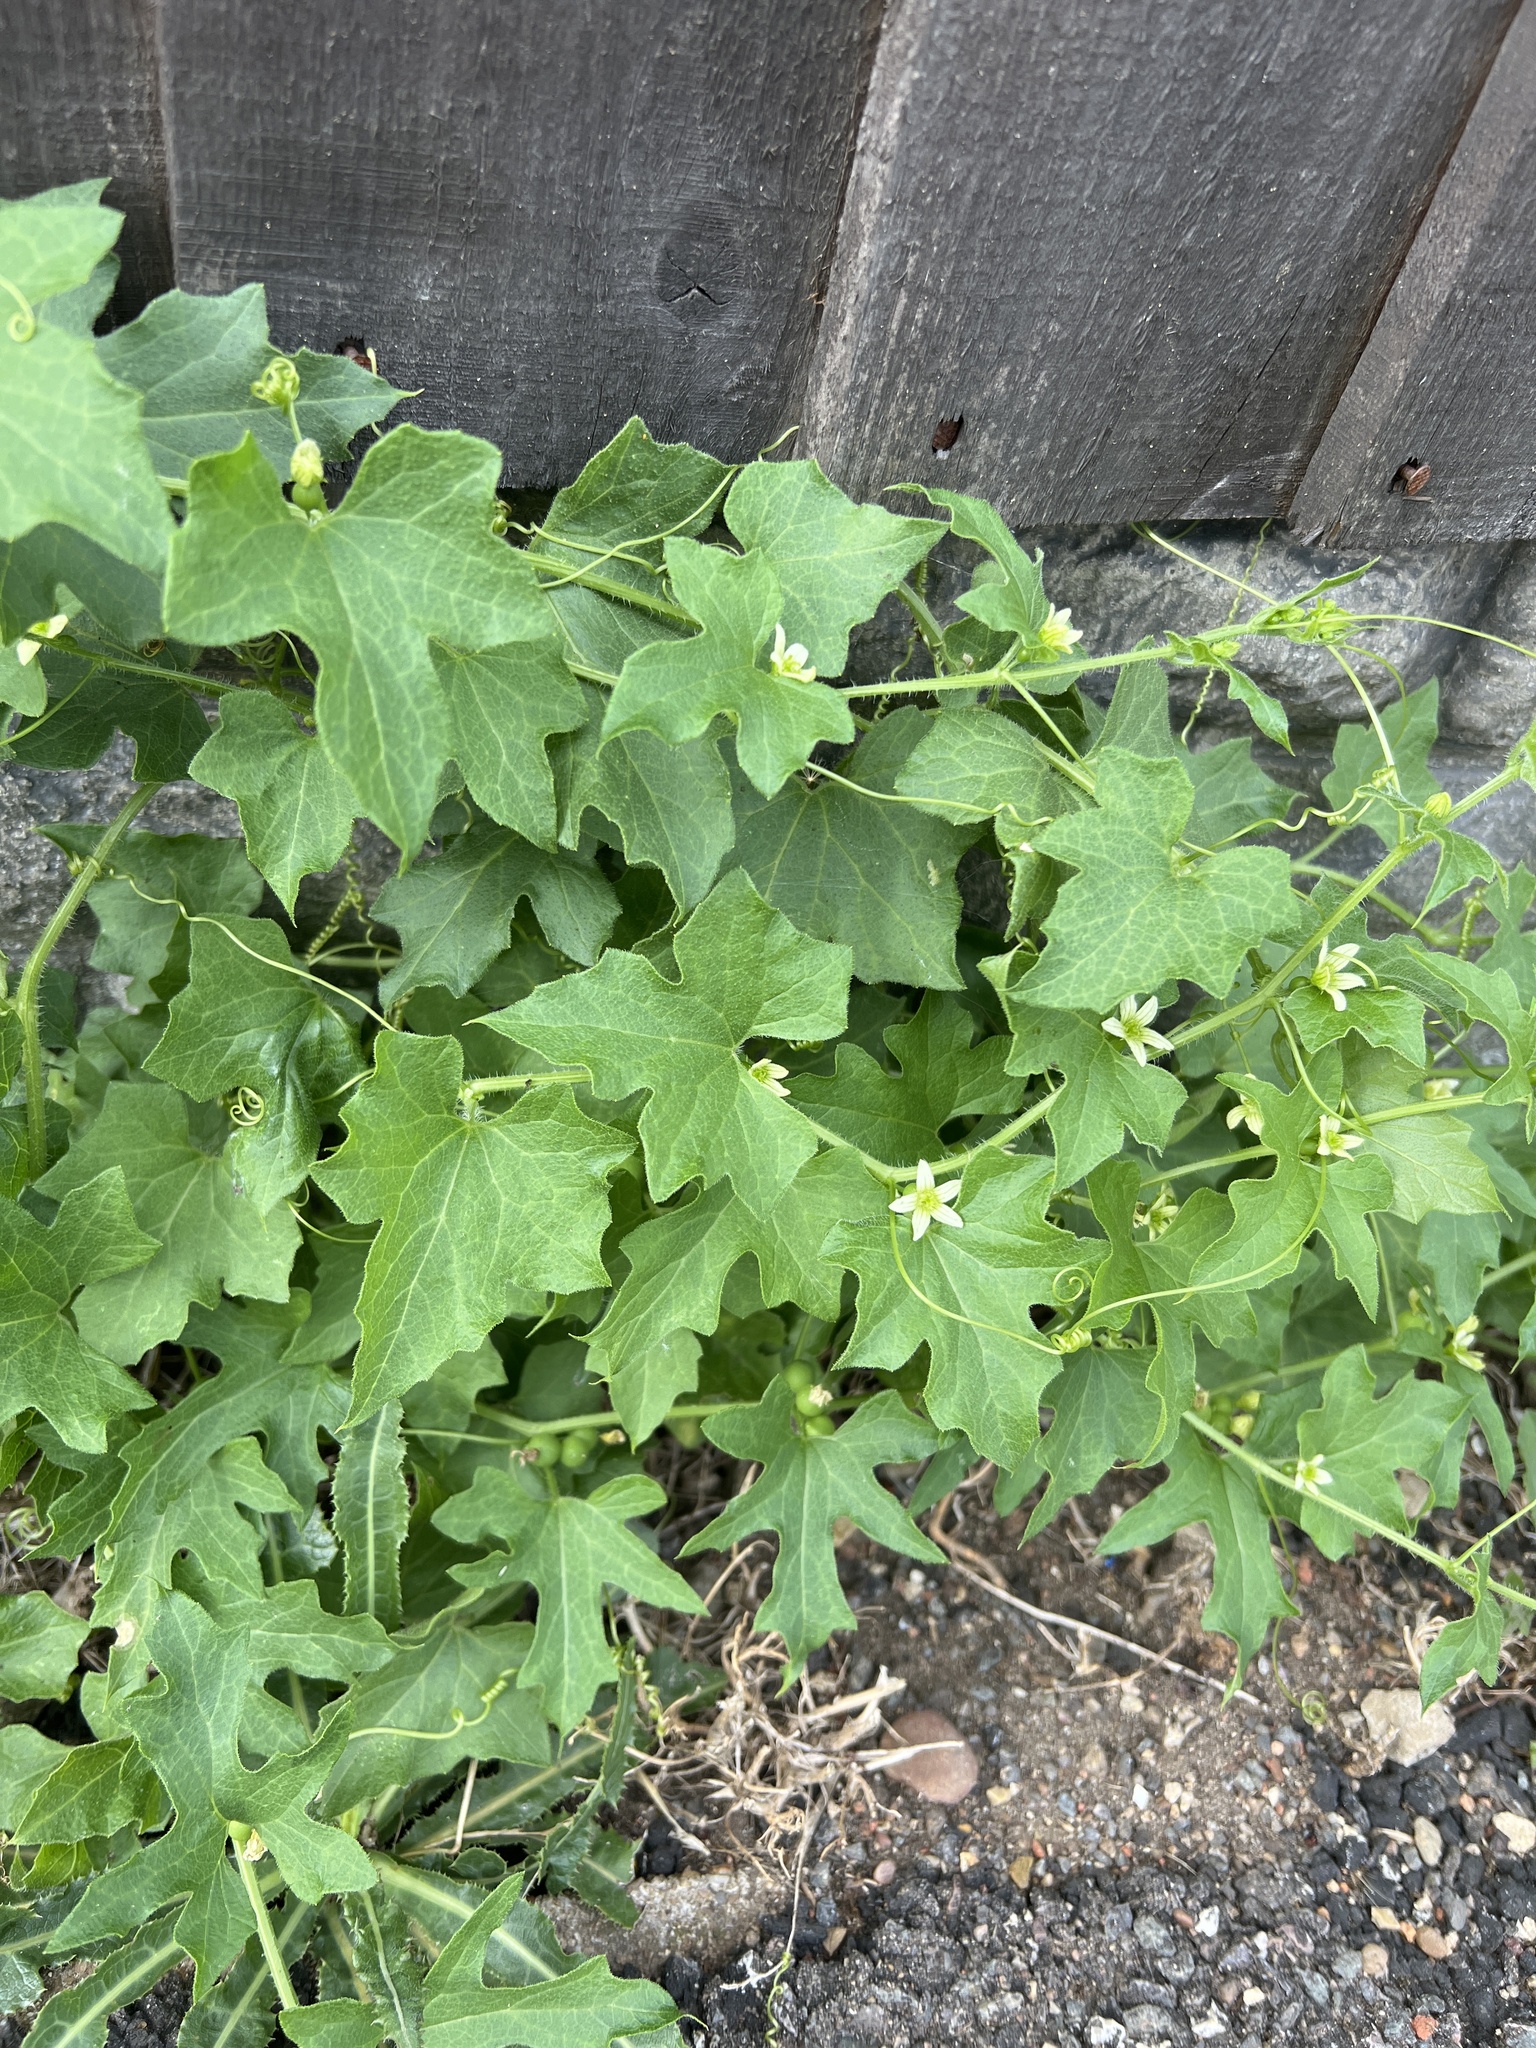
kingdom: Plantae
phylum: Tracheophyta
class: Magnoliopsida
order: Cucurbitales
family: Cucurbitaceae
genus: Bryonia
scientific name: Bryonia cretica
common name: Cretan bryony
